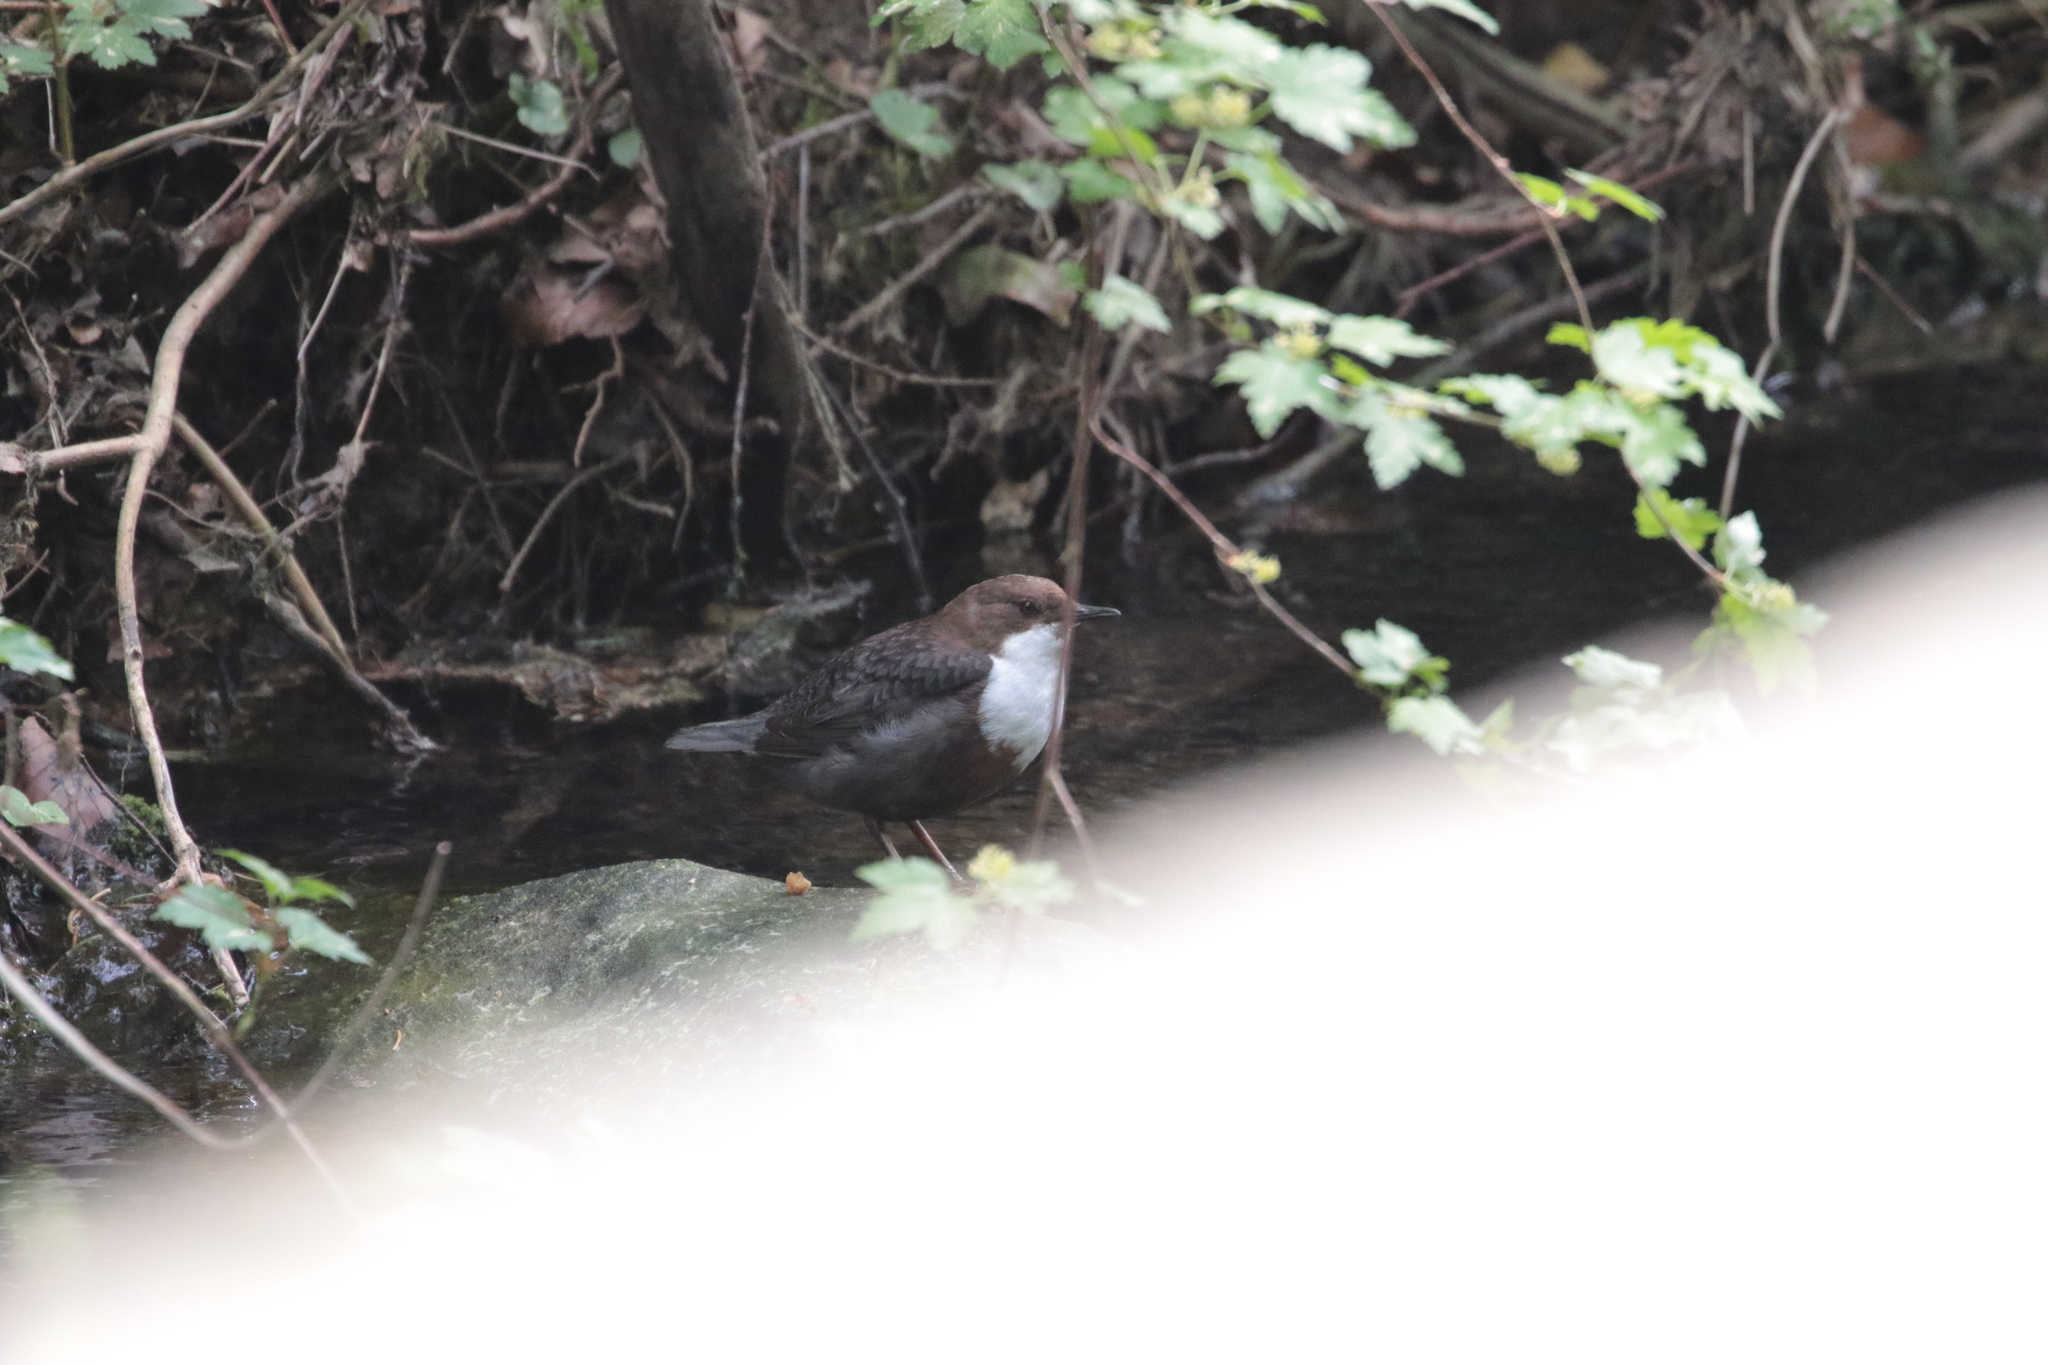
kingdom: Animalia
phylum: Chordata
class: Aves
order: Passeriformes
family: Cinclidae
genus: Cinclus
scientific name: Cinclus cinclus
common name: White-throated dipper
